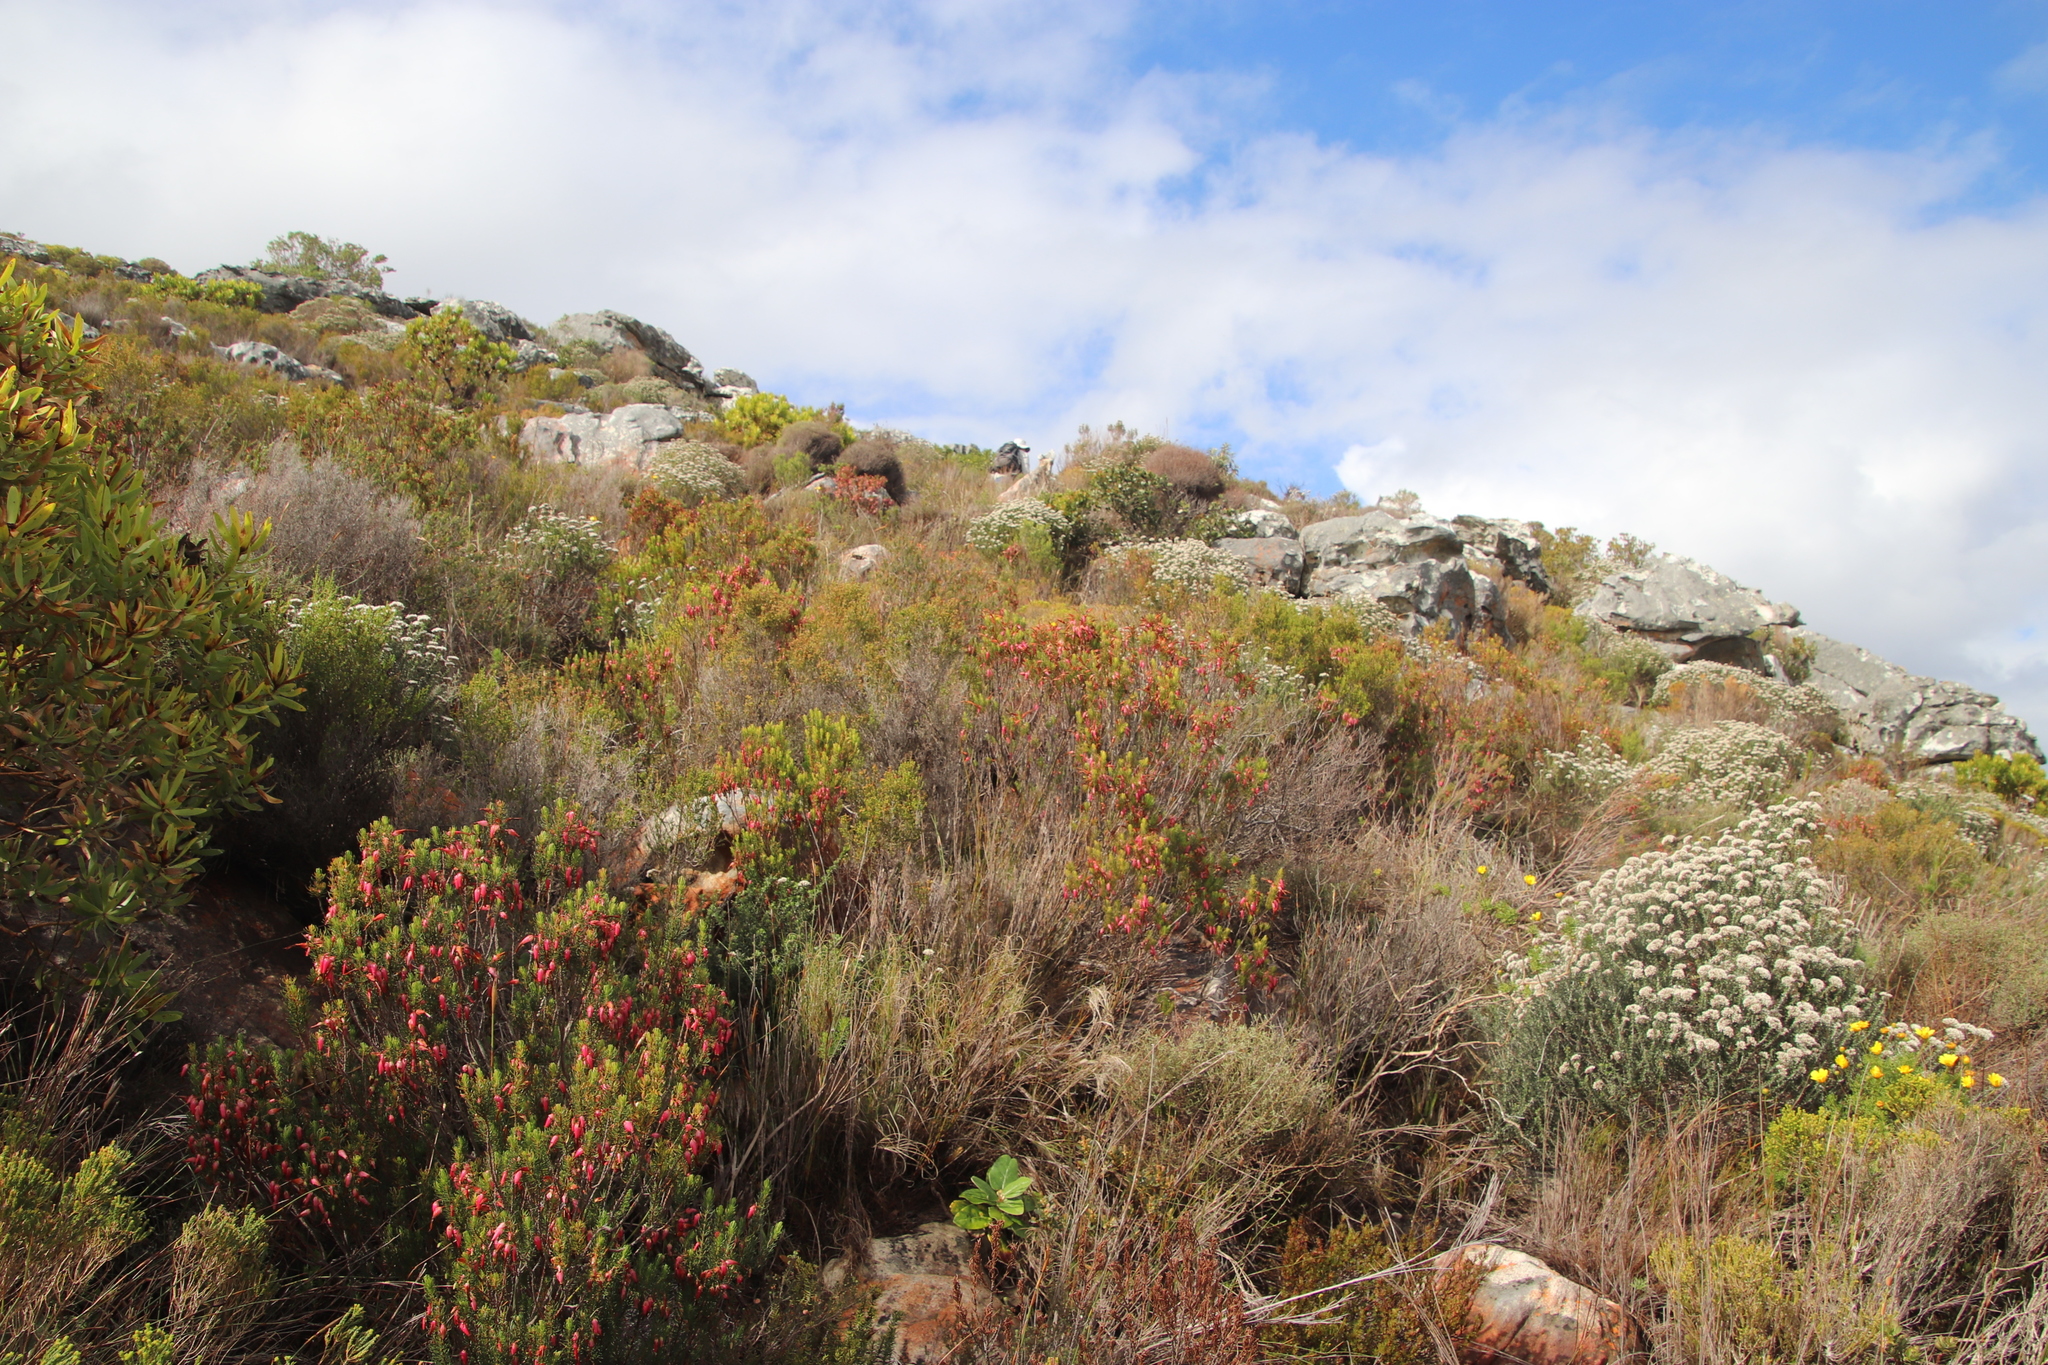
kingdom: Plantae
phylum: Tracheophyta
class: Magnoliopsida
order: Ericales
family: Ericaceae
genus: Erica
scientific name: Erica plukenetii
